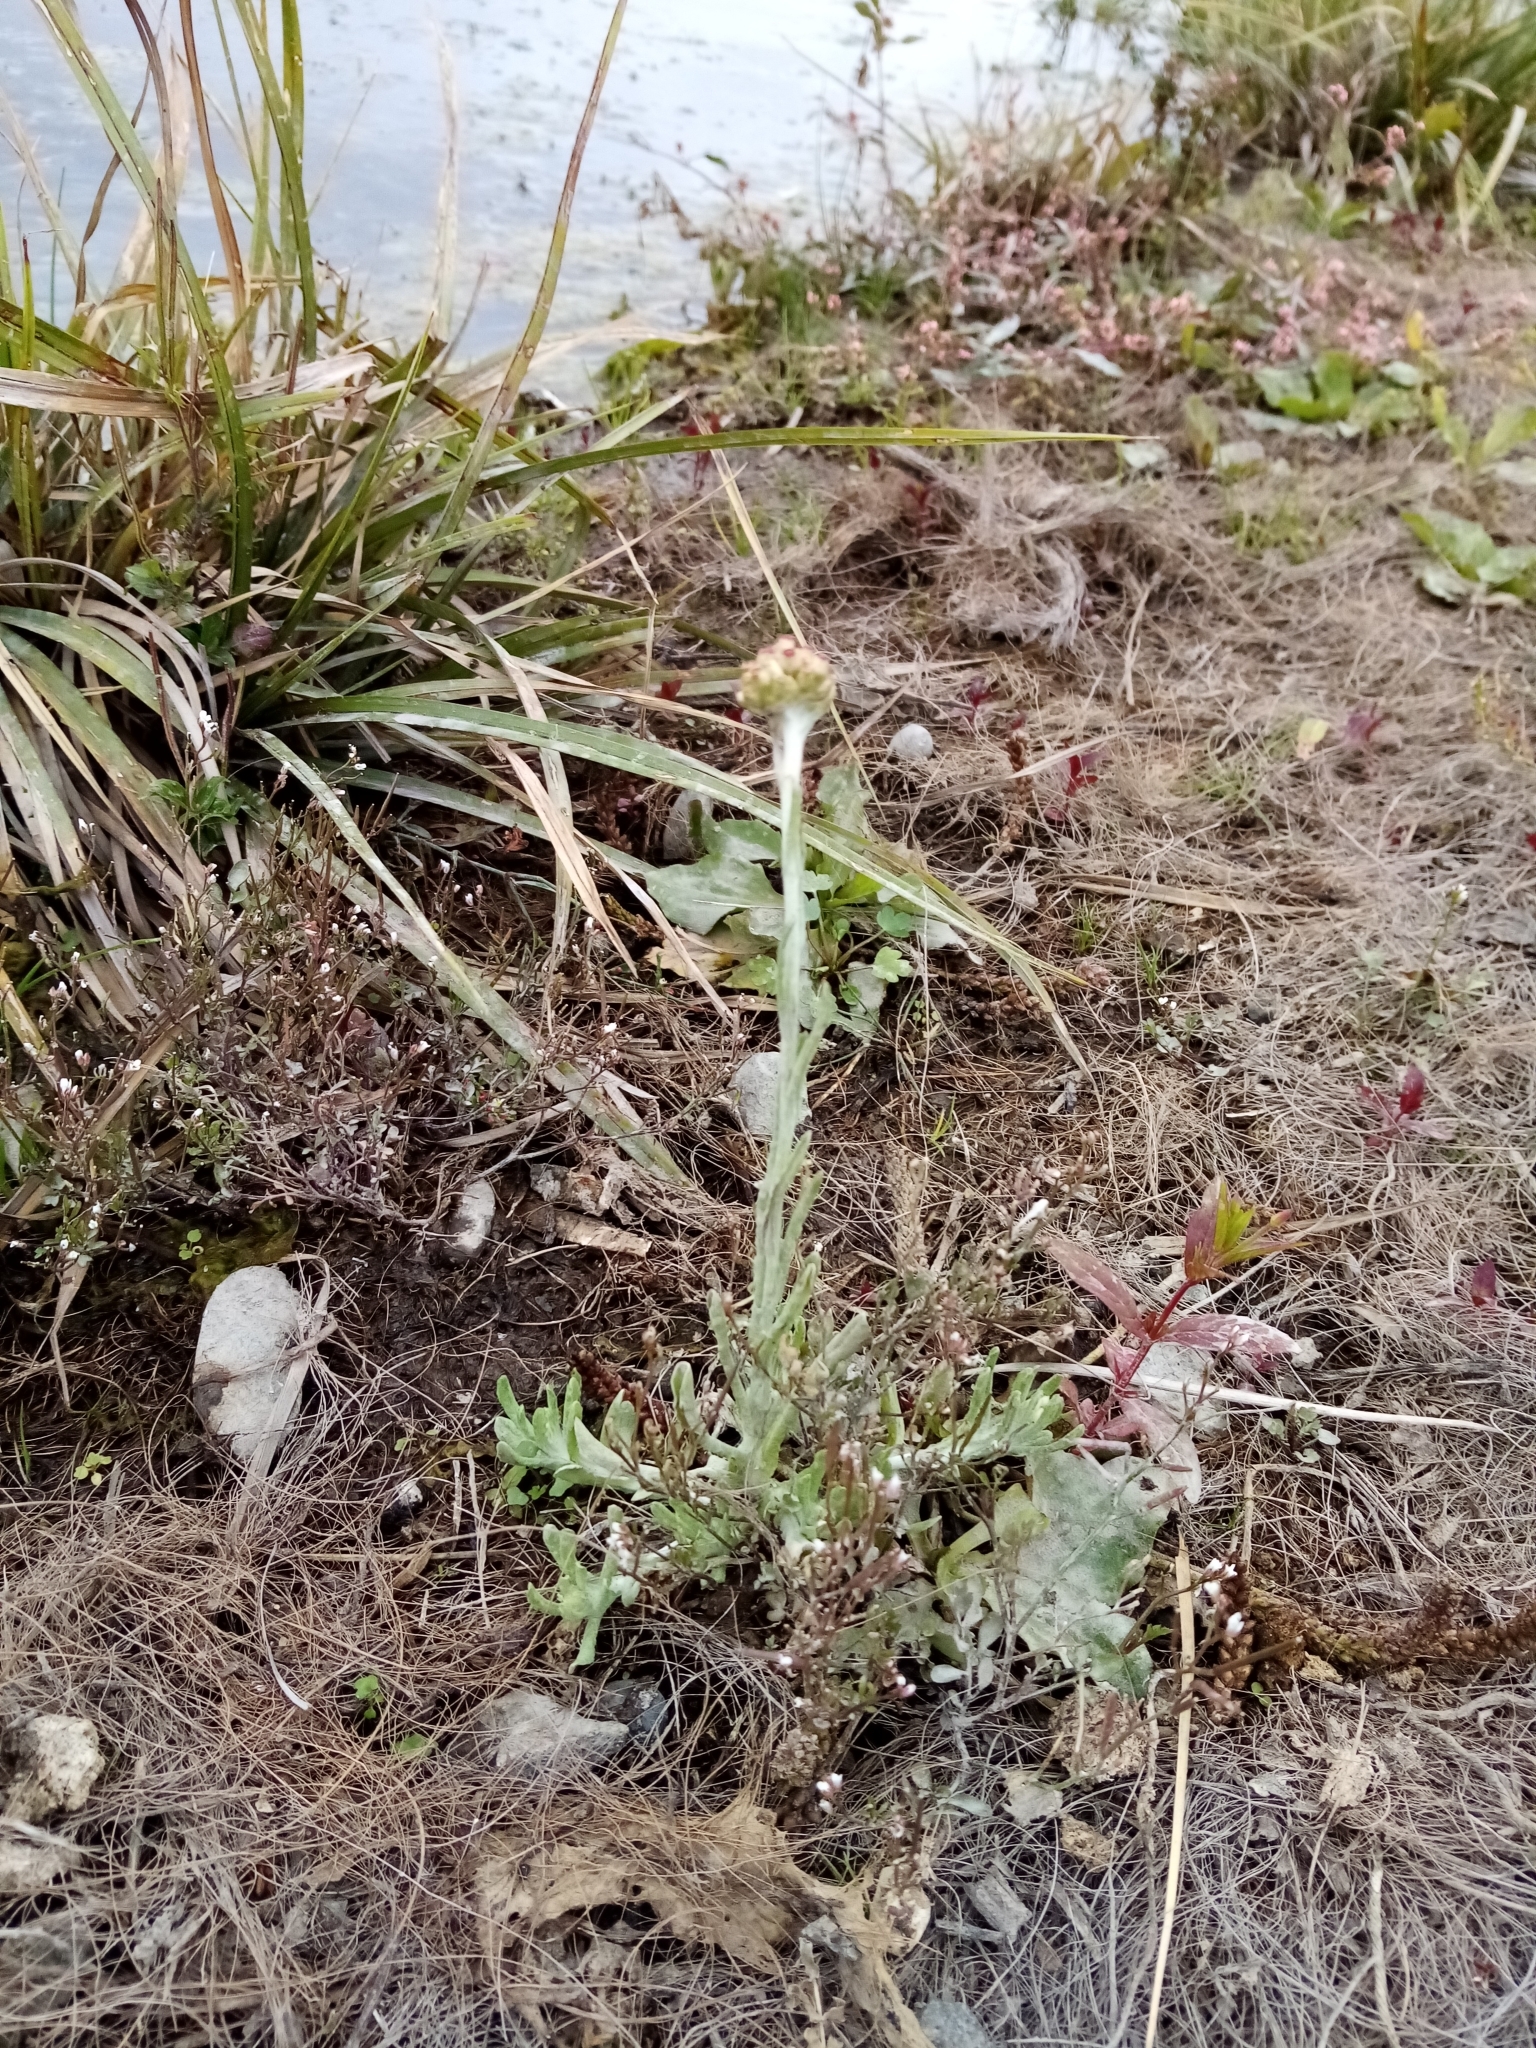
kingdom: Plantae
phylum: Tracheophyta
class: Magnoliopsida
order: Asterales
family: Asteraceae
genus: Helichrysum
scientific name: Helichrysum luteoalbum
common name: Daisy
